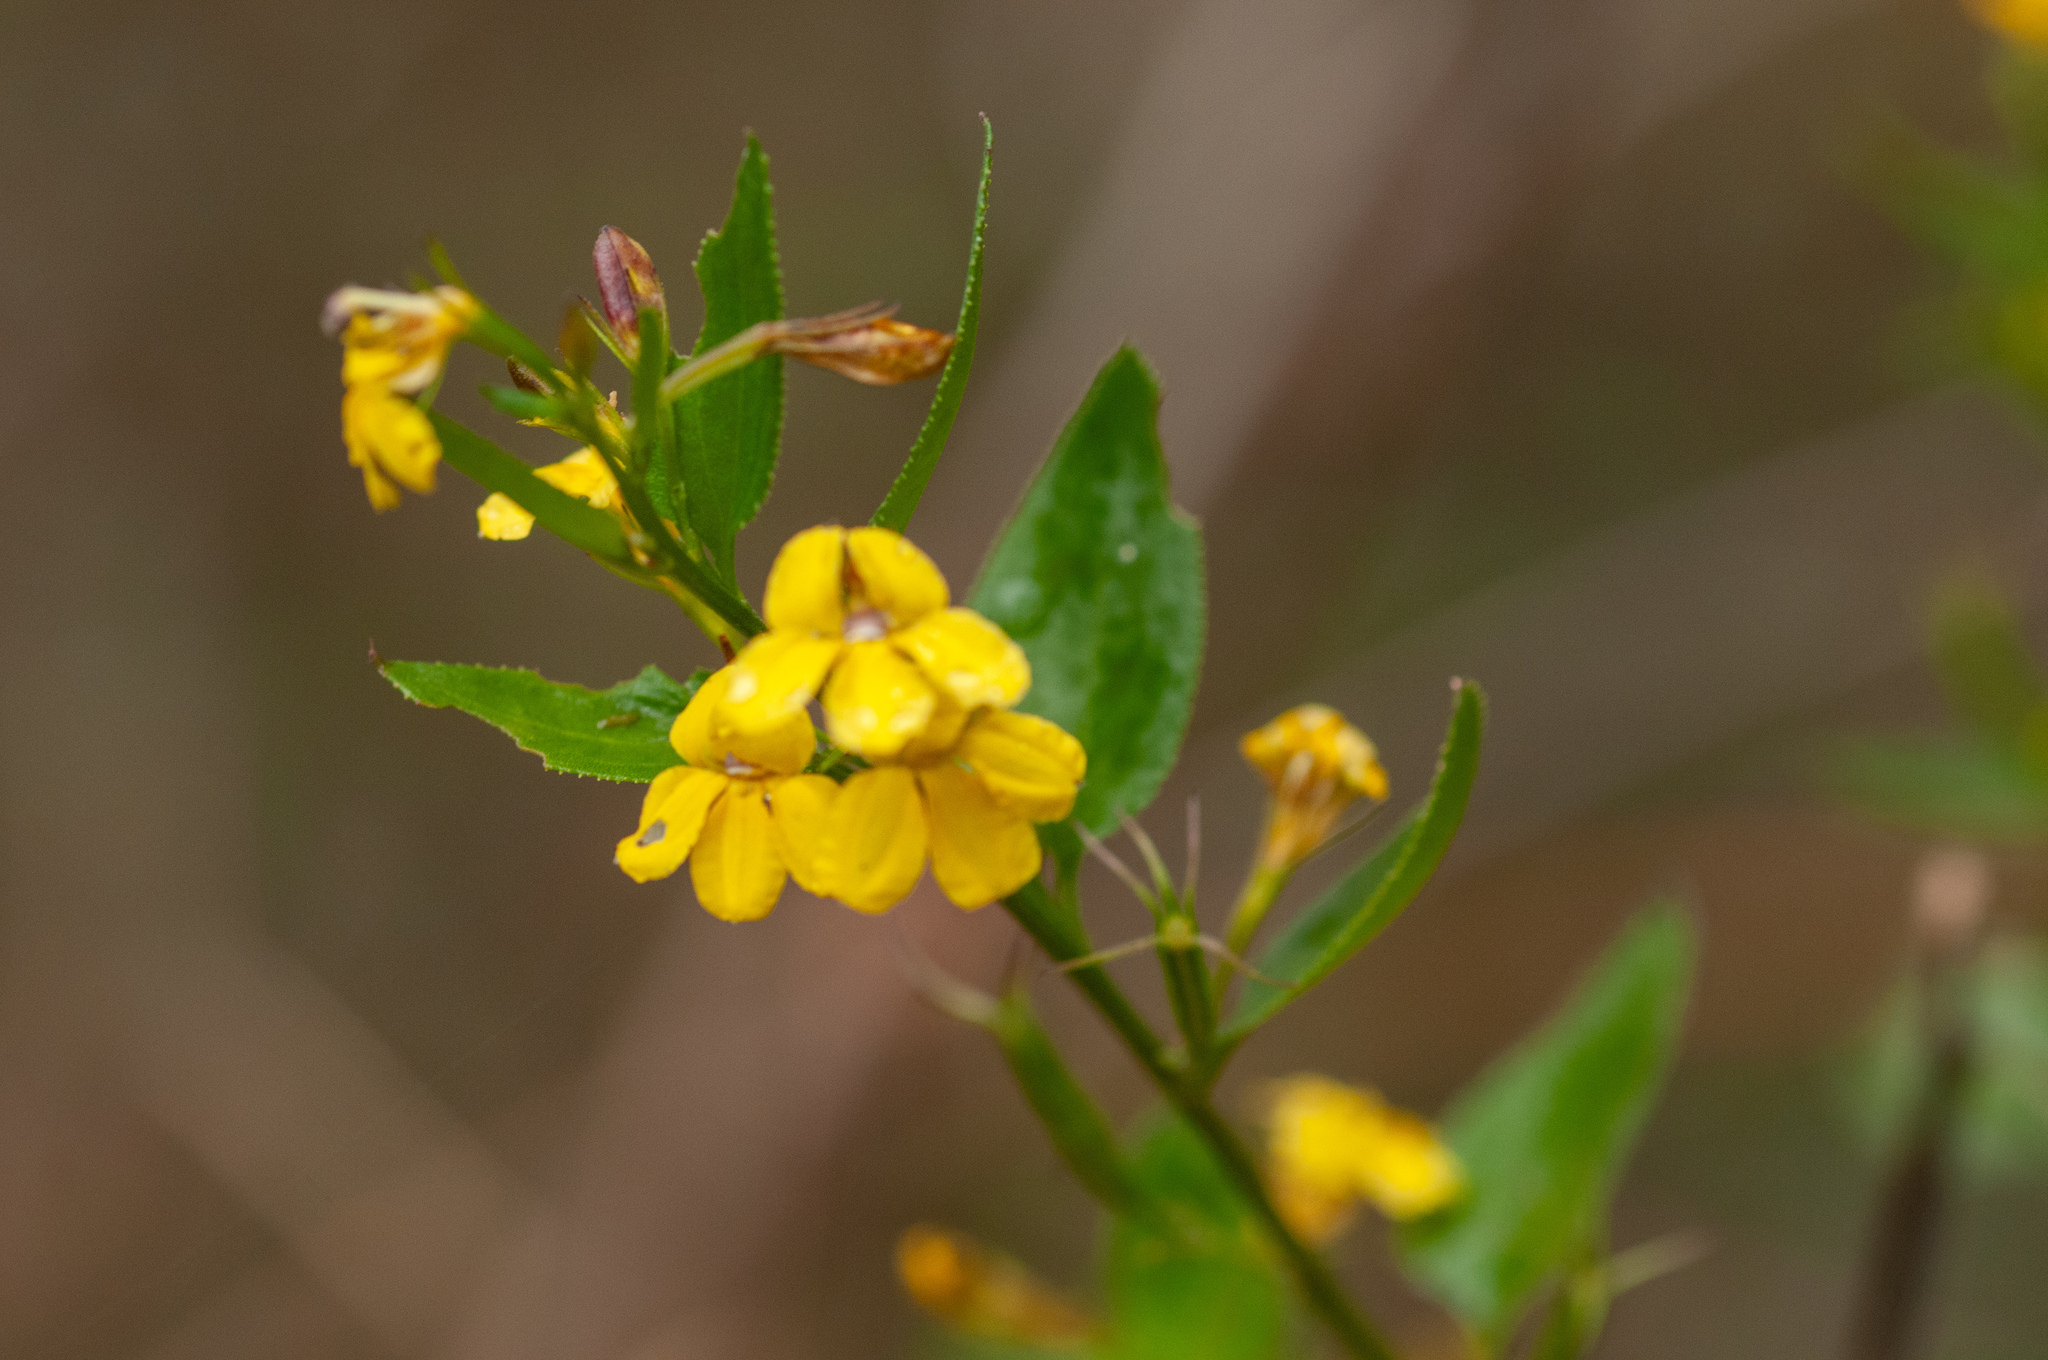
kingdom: Plantae
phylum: Tracheophyta
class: Magnoliopsida
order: Asterales
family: Goodeniaceae
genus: Goodenia
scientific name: Goodenia ovata
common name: Hop goodenia
